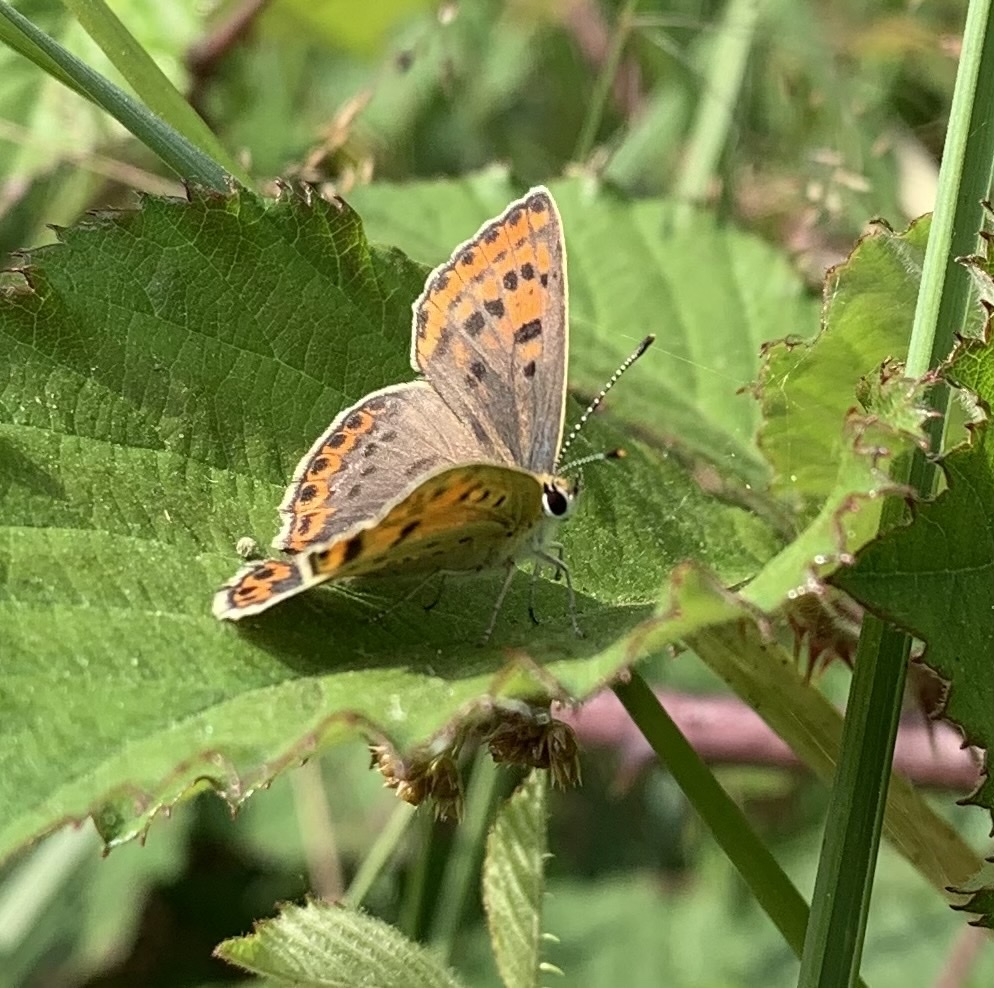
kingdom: Animalia
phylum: Arthropoda
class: Insecta
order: Lepidoptera
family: Lycaenidae
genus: Loweia
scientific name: Loweia tityrus
